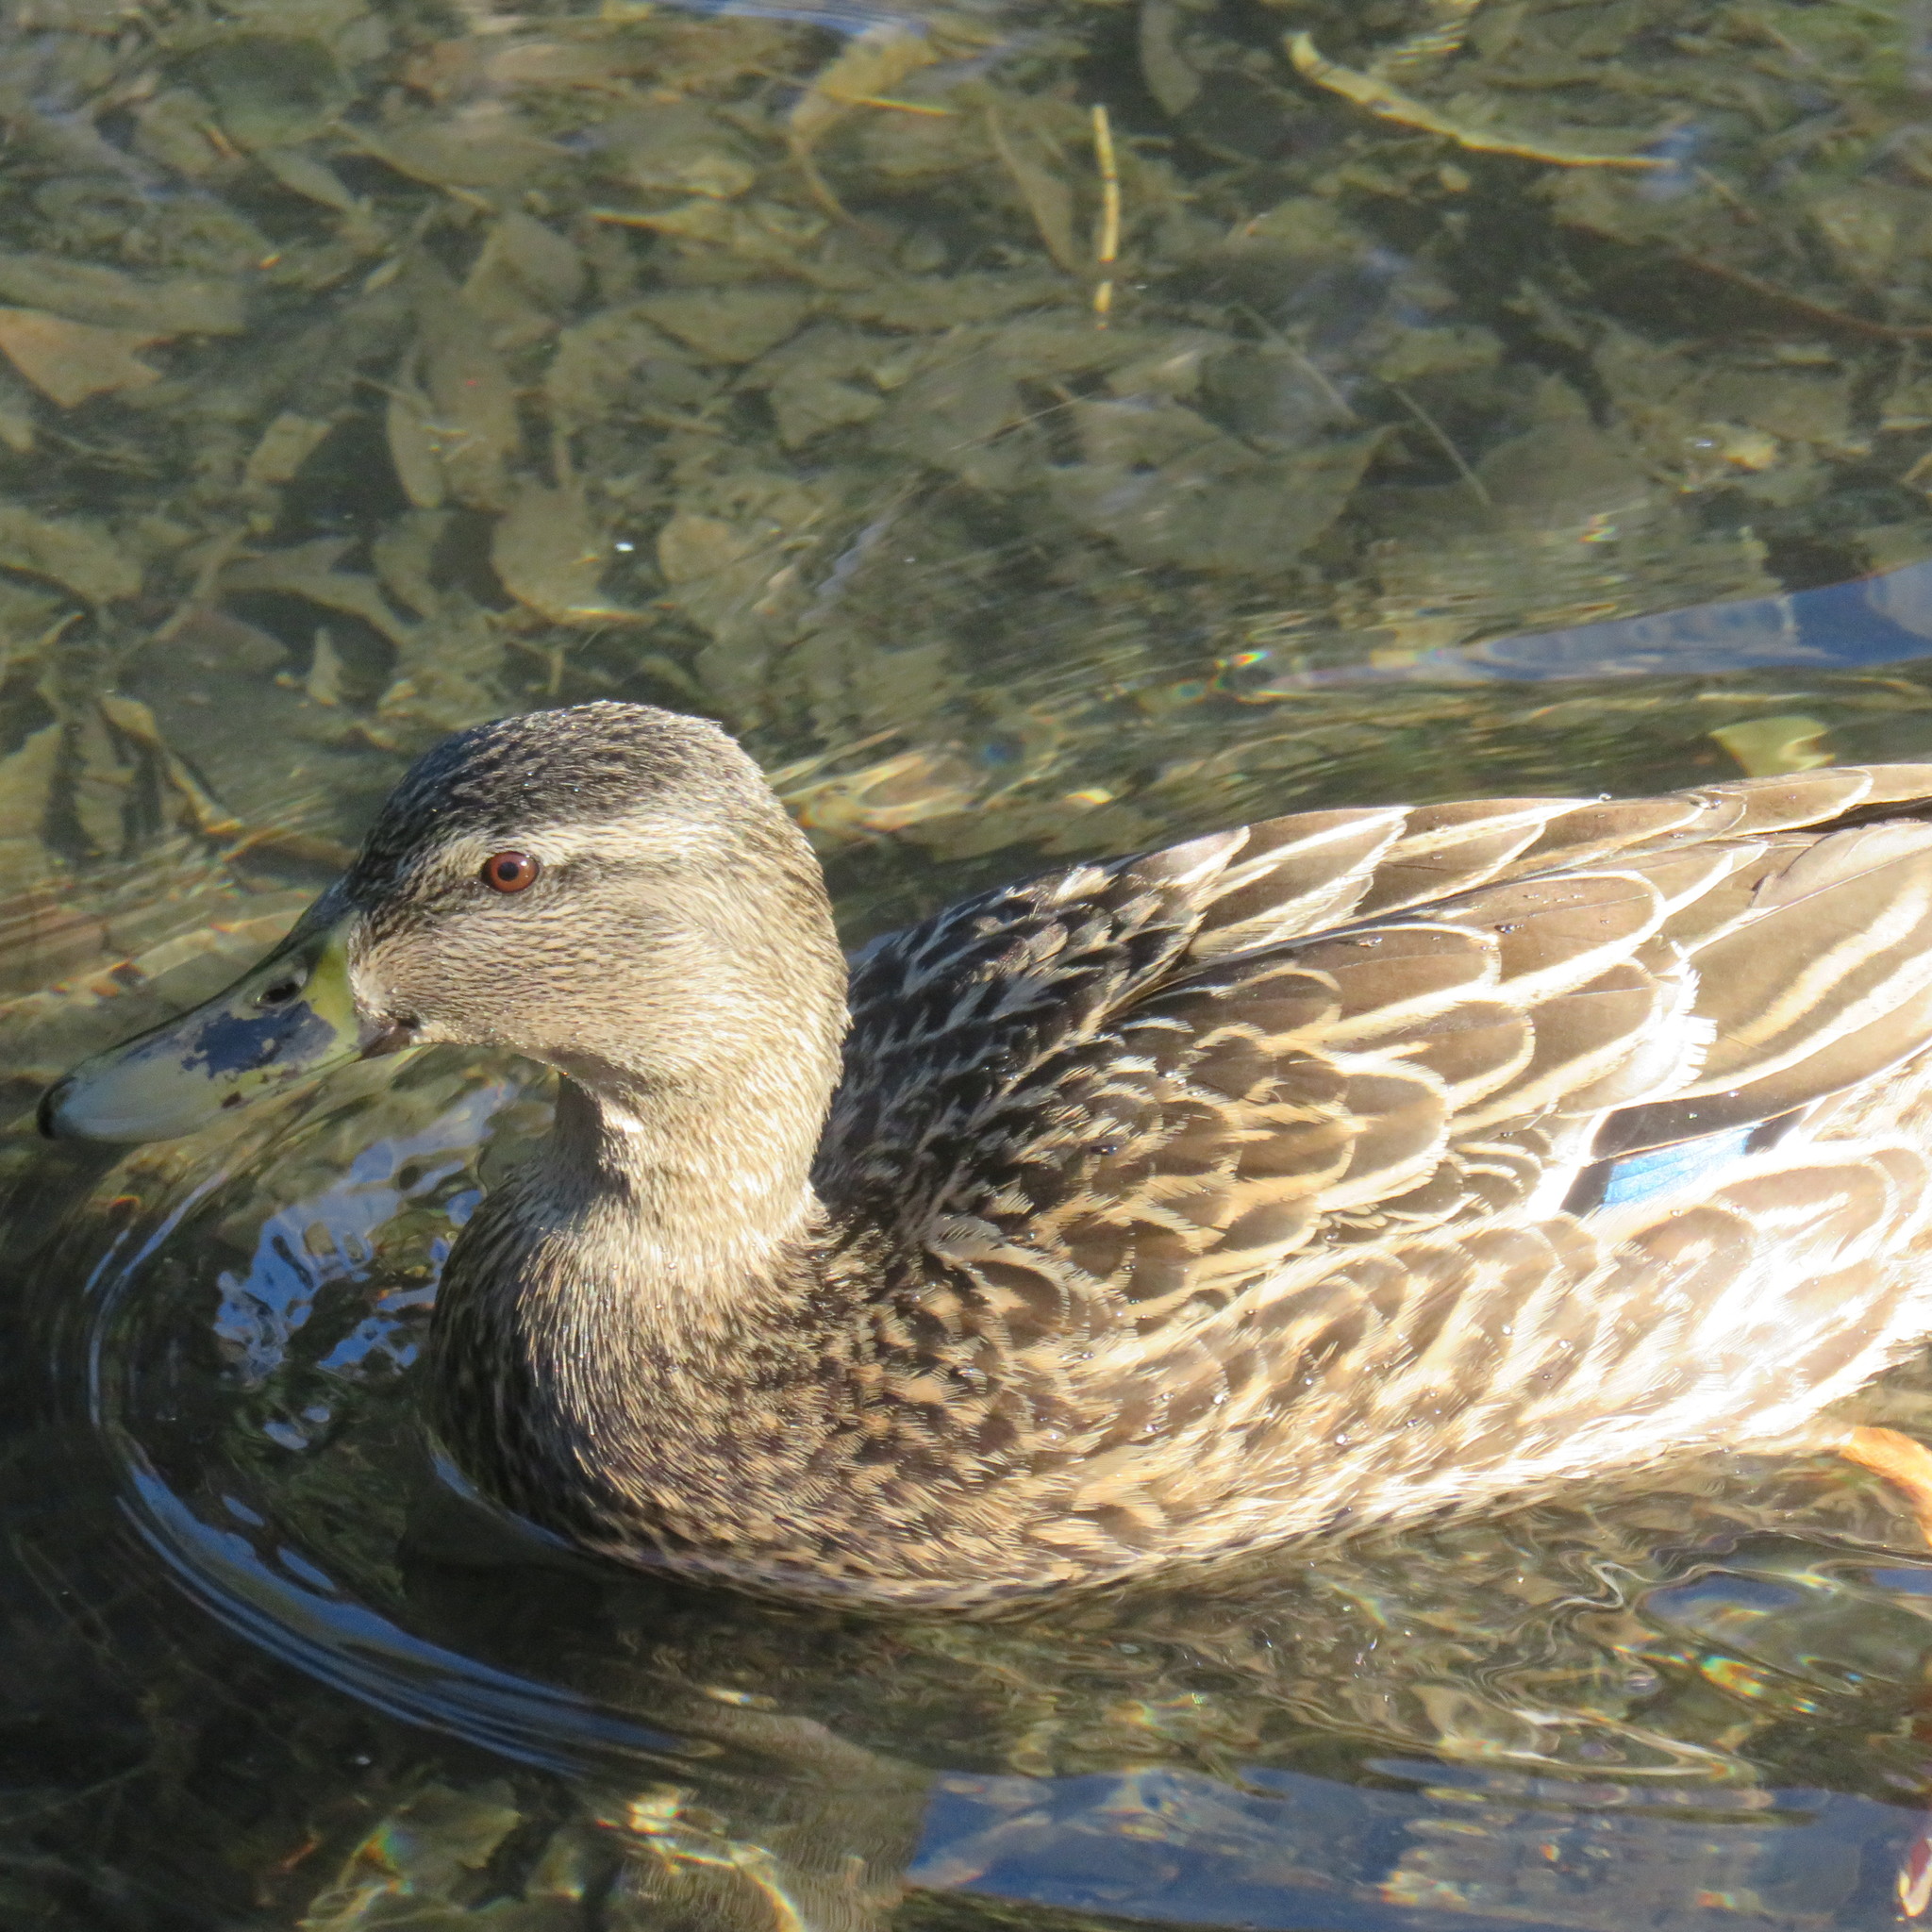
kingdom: Animalia
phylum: Chordata
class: Aves
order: Anseriformes
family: Anatidae
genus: Anas
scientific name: Anas
